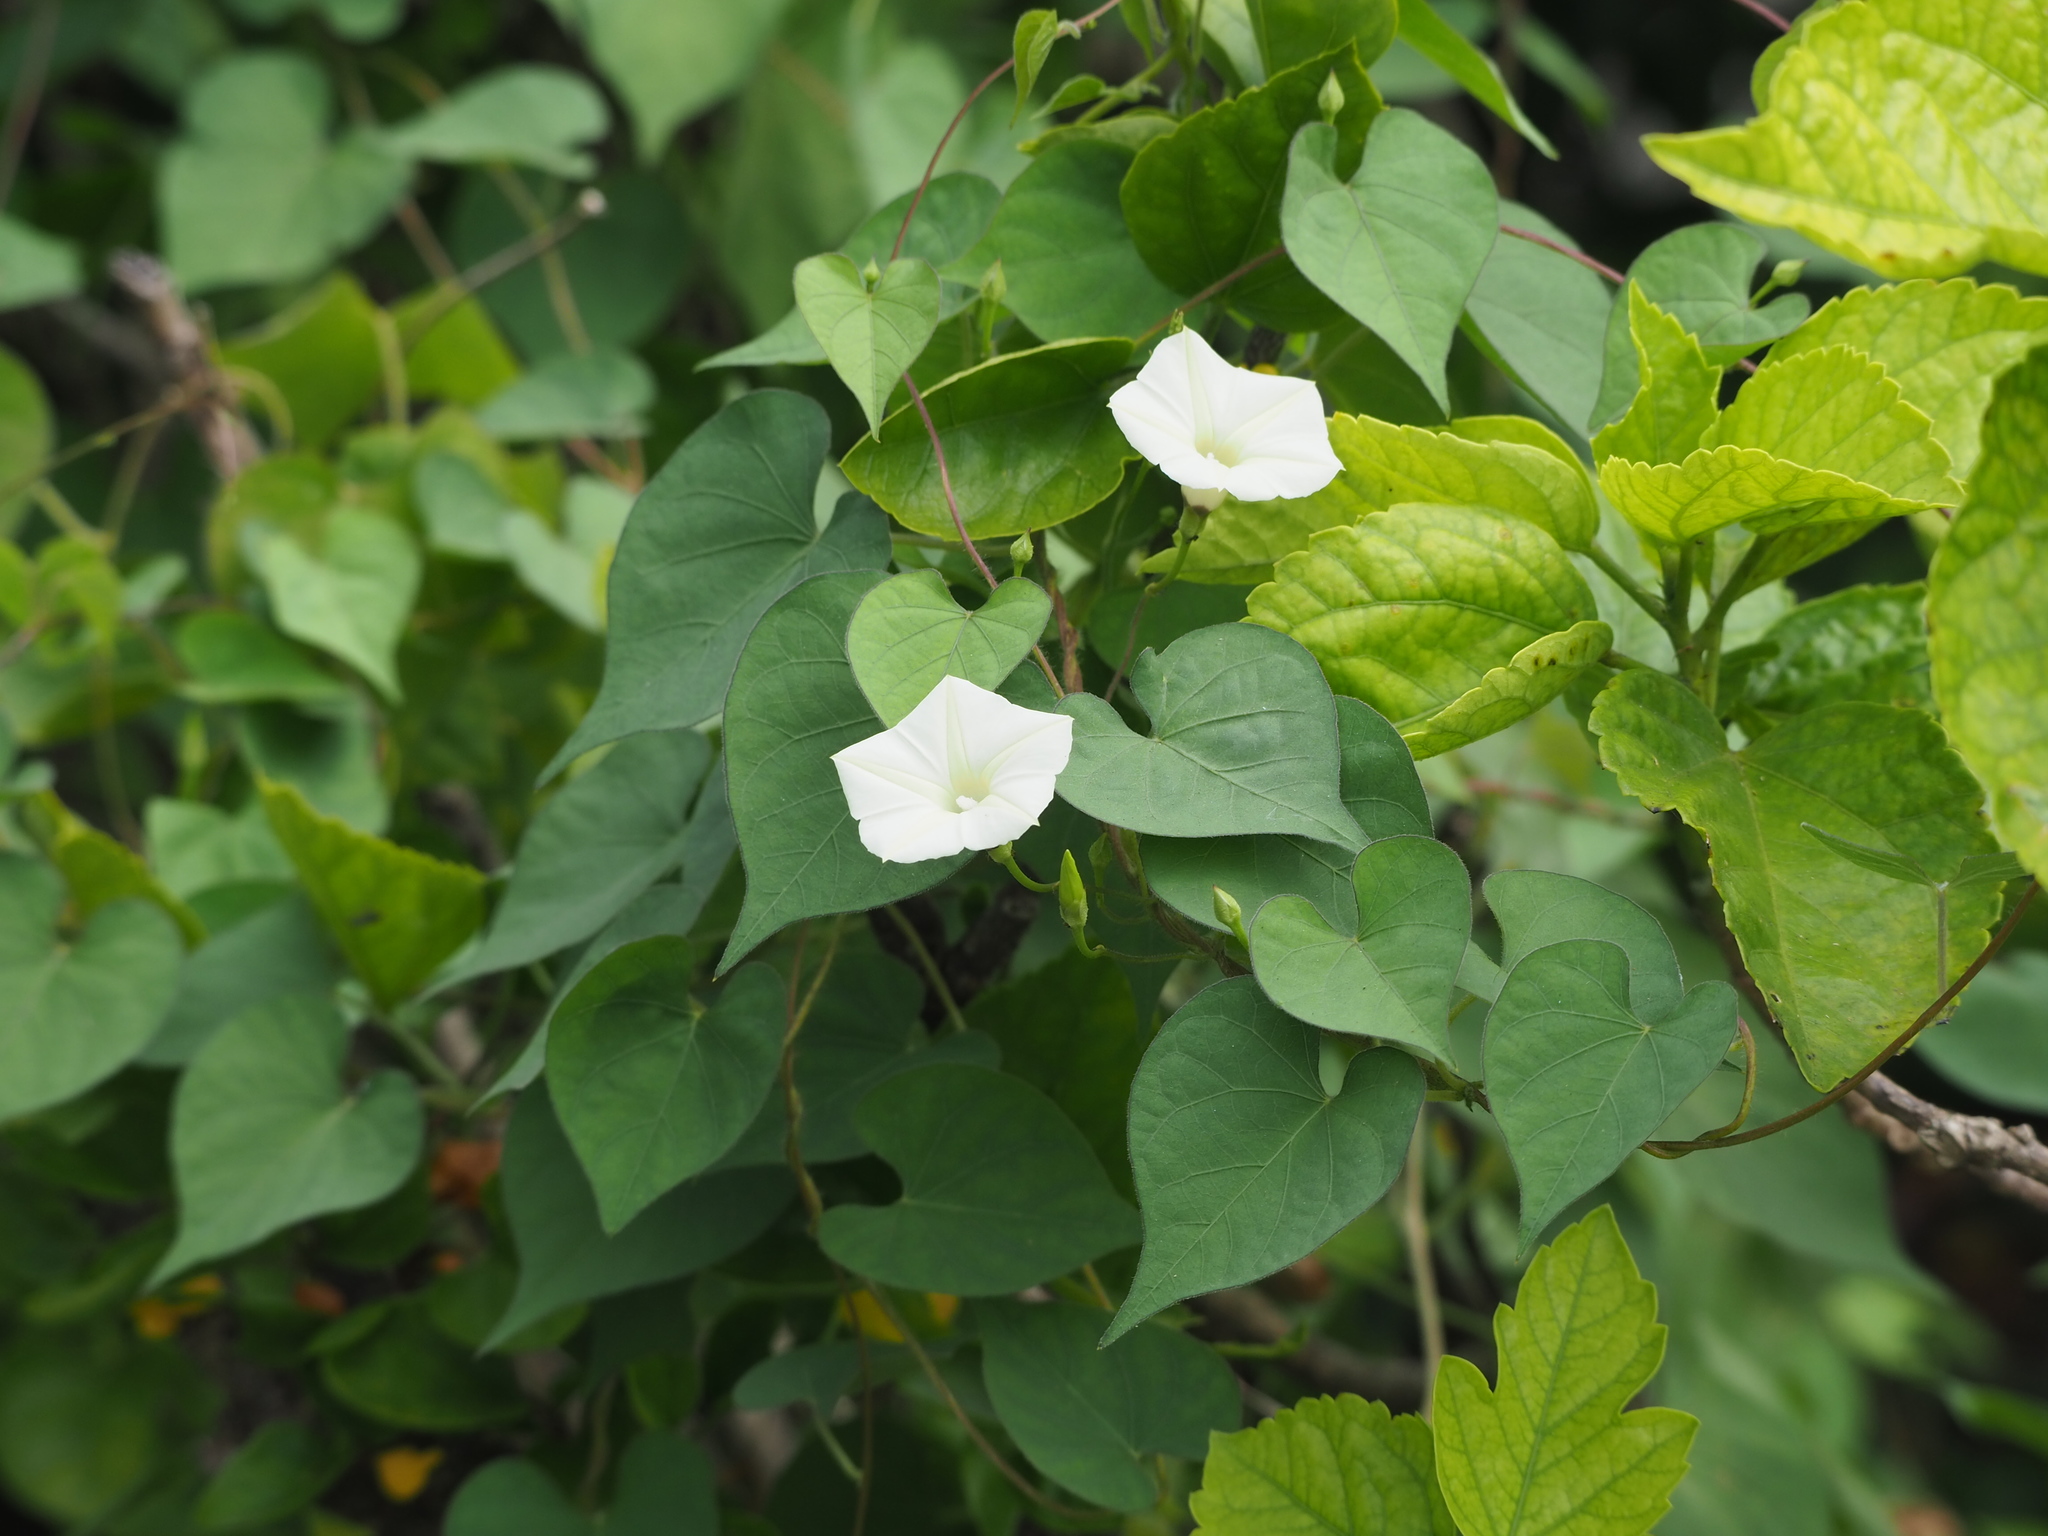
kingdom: Plantae
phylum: Tracheophyta
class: Magnoliopsida
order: Solanales
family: Convolvulaceae
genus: Ipomoea
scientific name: Ipomoea obscura
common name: Obscure morning-glory
